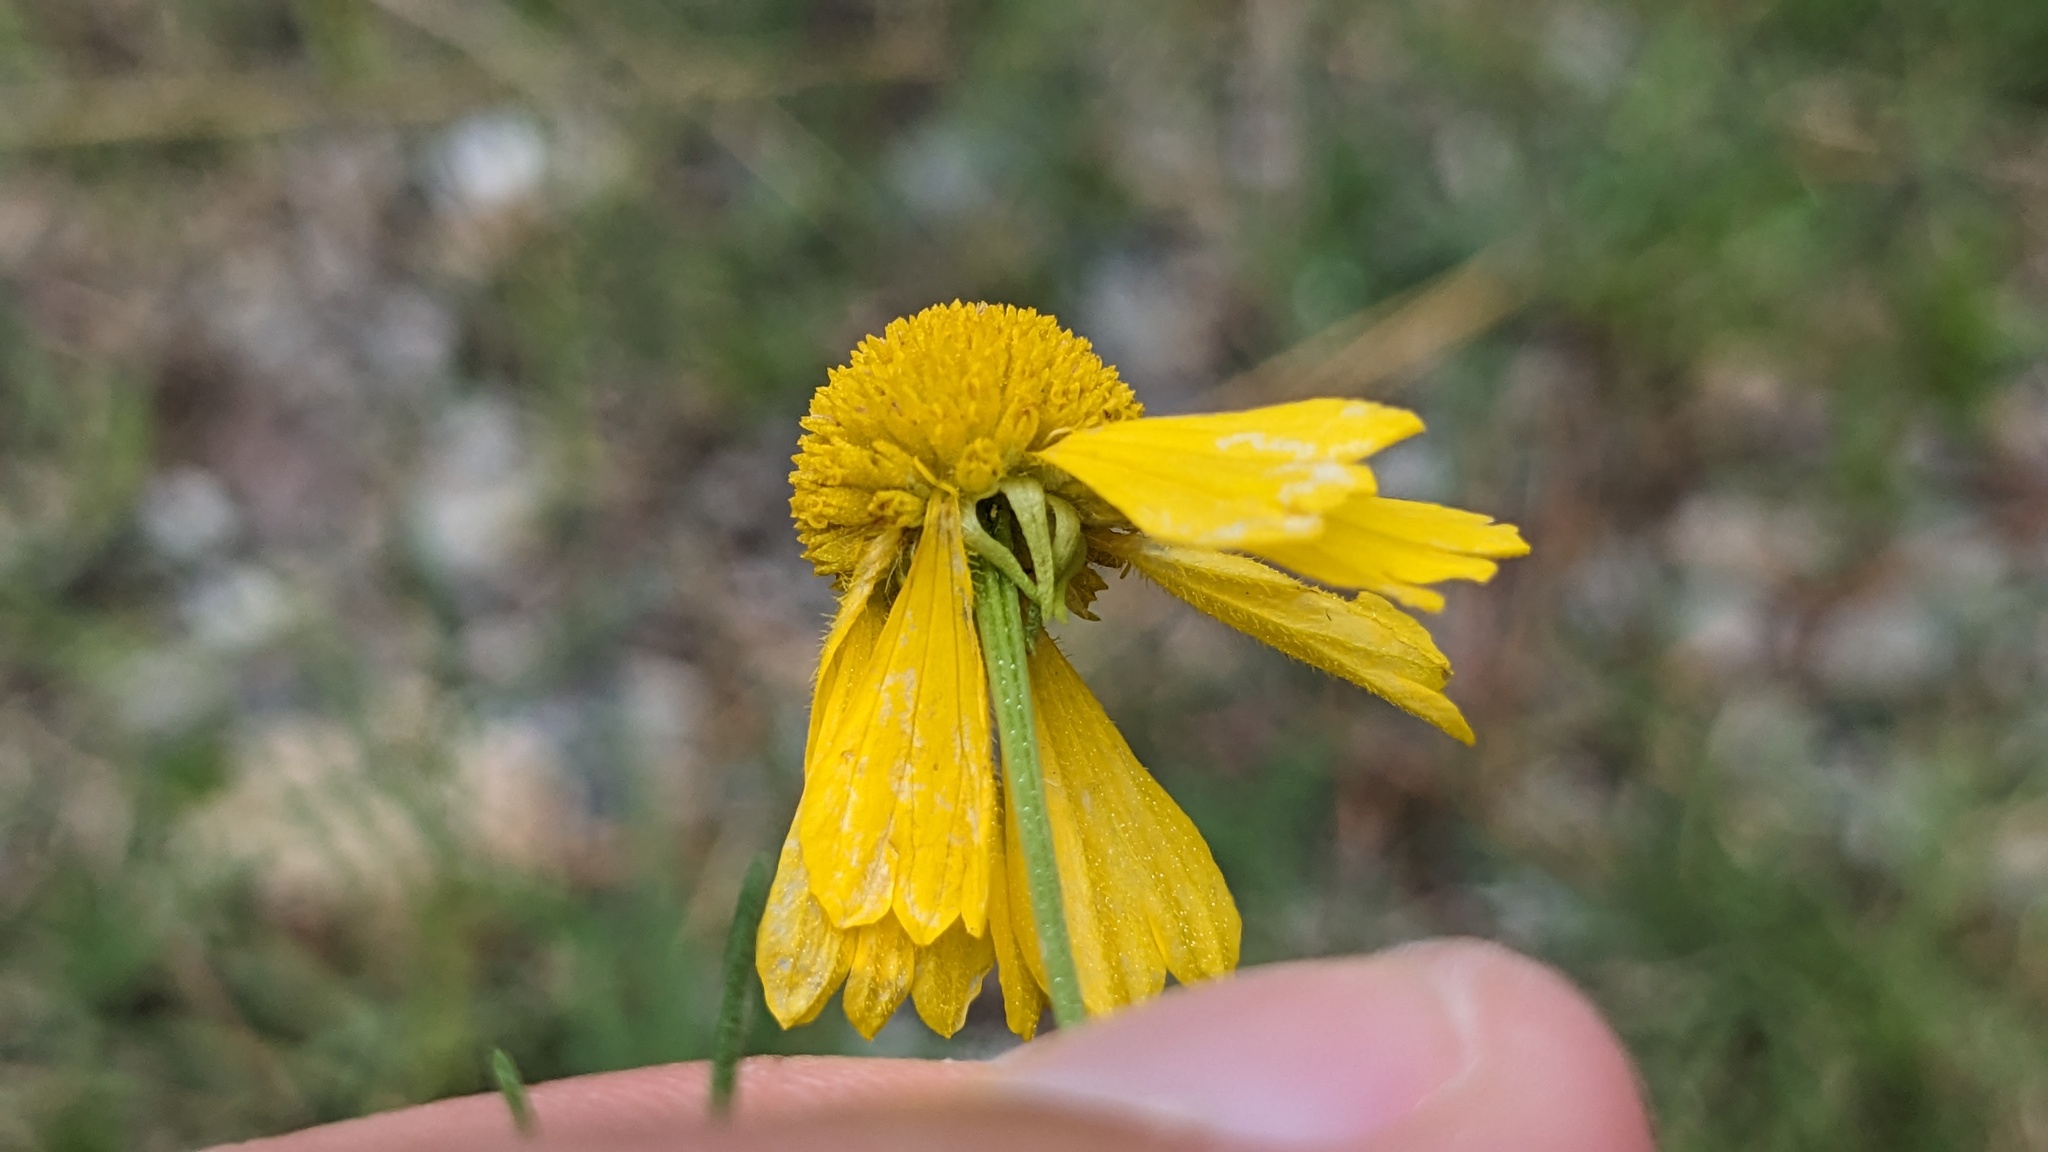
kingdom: Plantae
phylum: Tracheophyta
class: Magnoliopsida
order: Asterales
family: Asteraceae
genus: Helenium
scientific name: Helenium amarum
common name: Bitter sneezeweed
